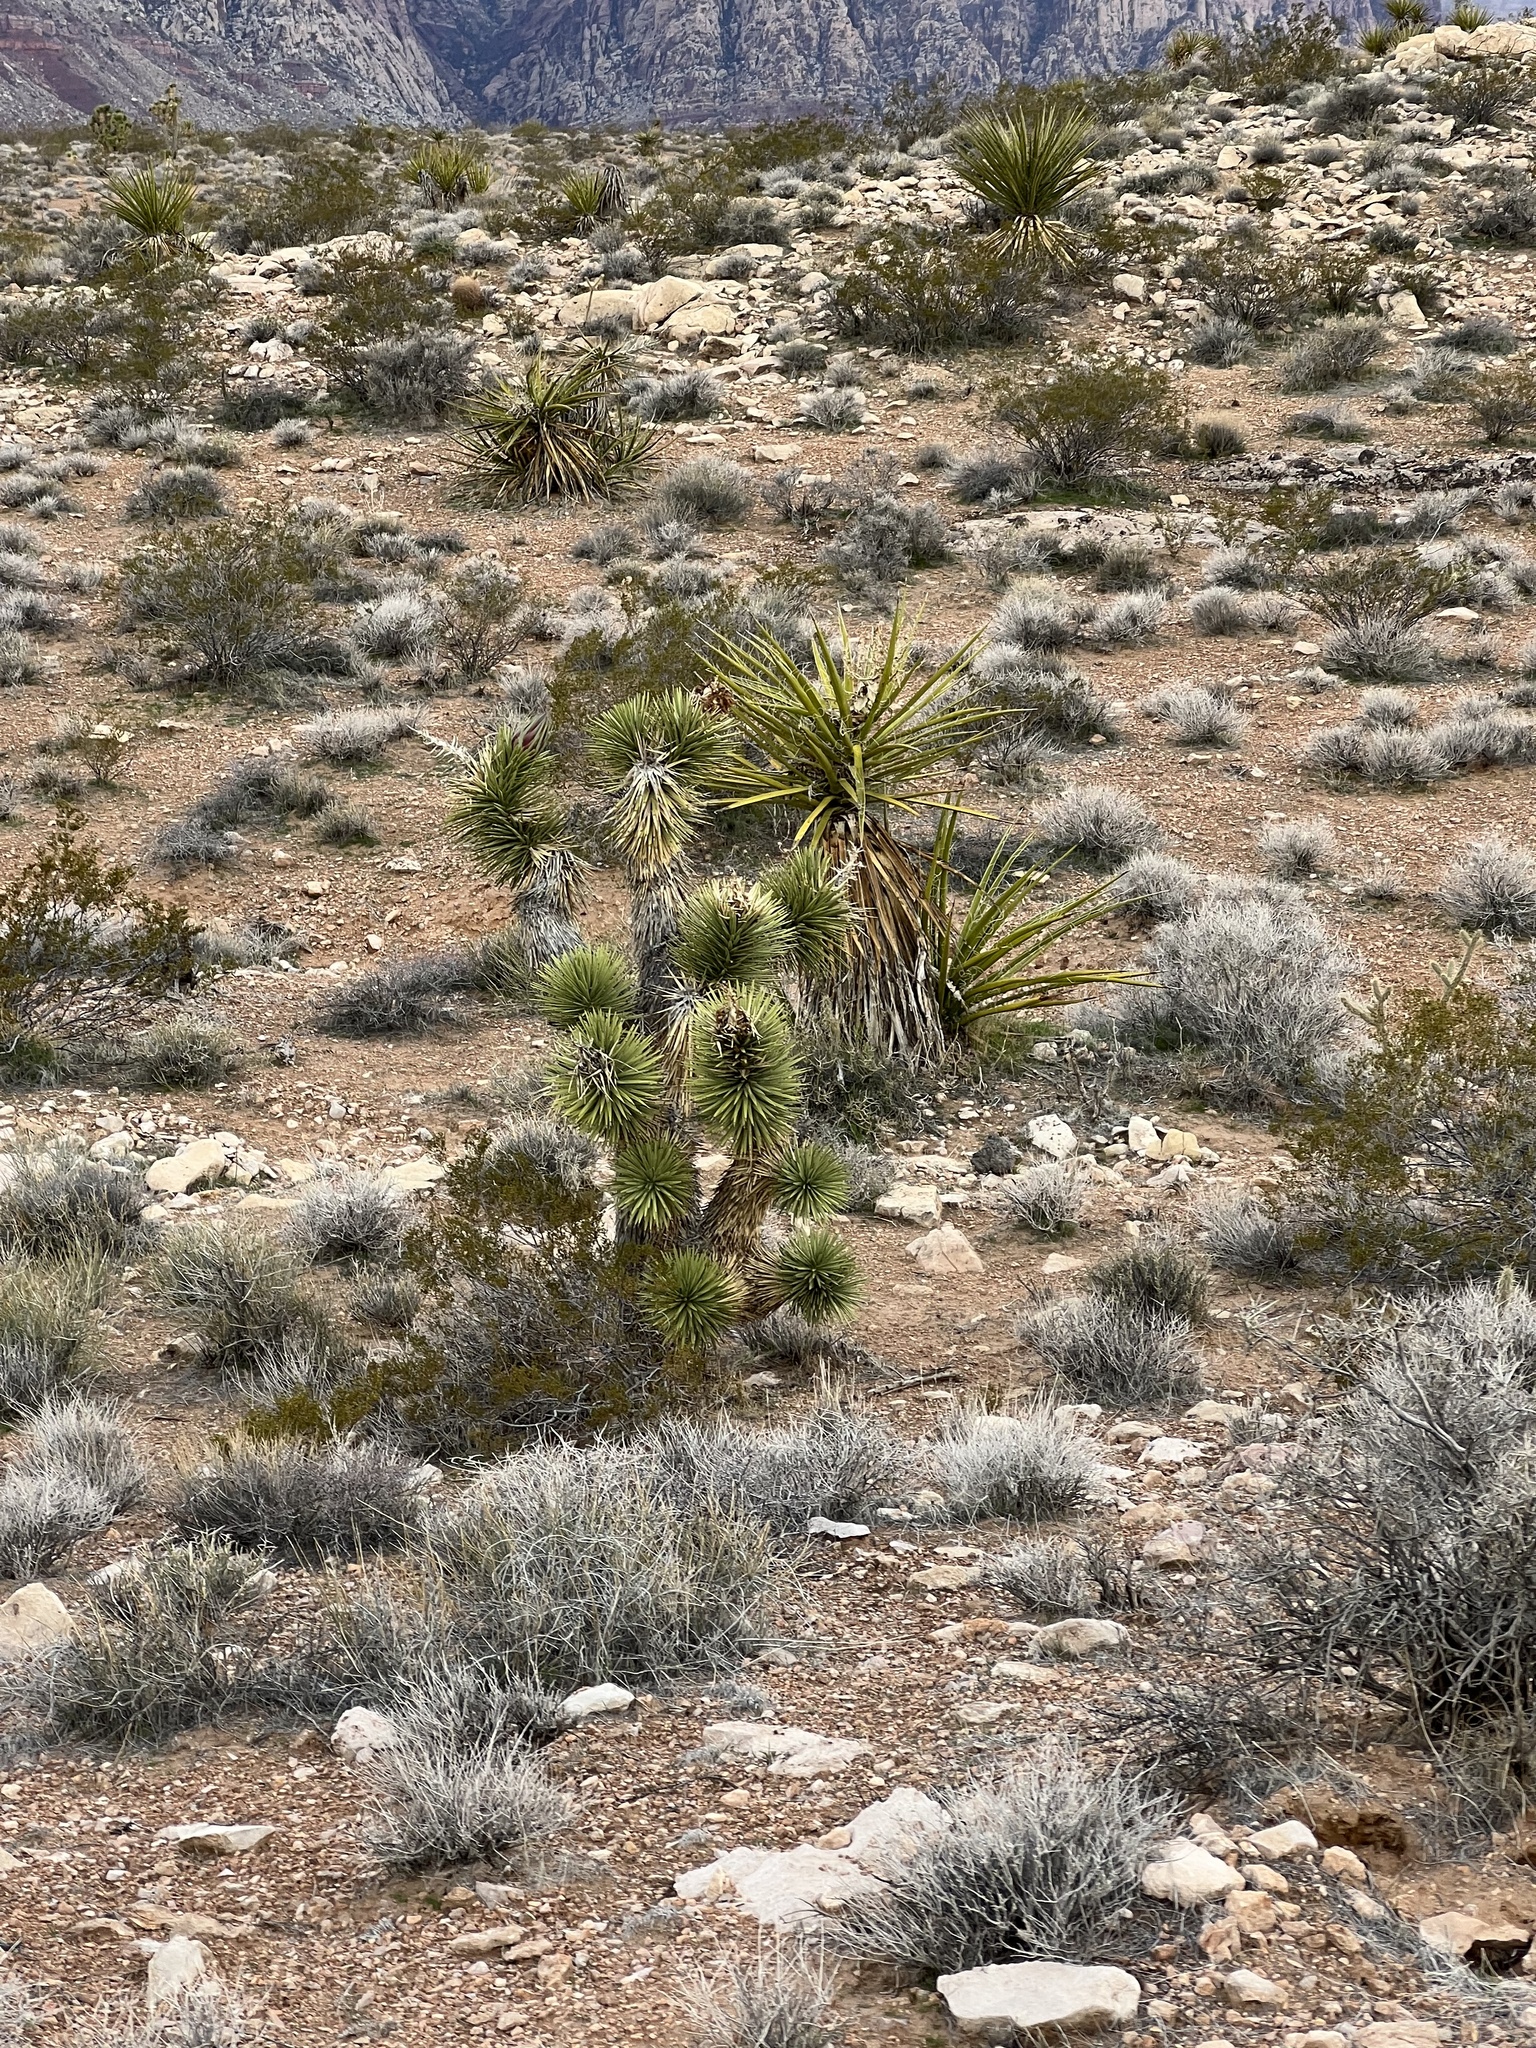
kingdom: Plantae
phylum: Tracheophyta
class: Liliopsida
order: Asparagales
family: Asparagaceae
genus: Yucca
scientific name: Yucca brevifolia
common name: Joshua tree
